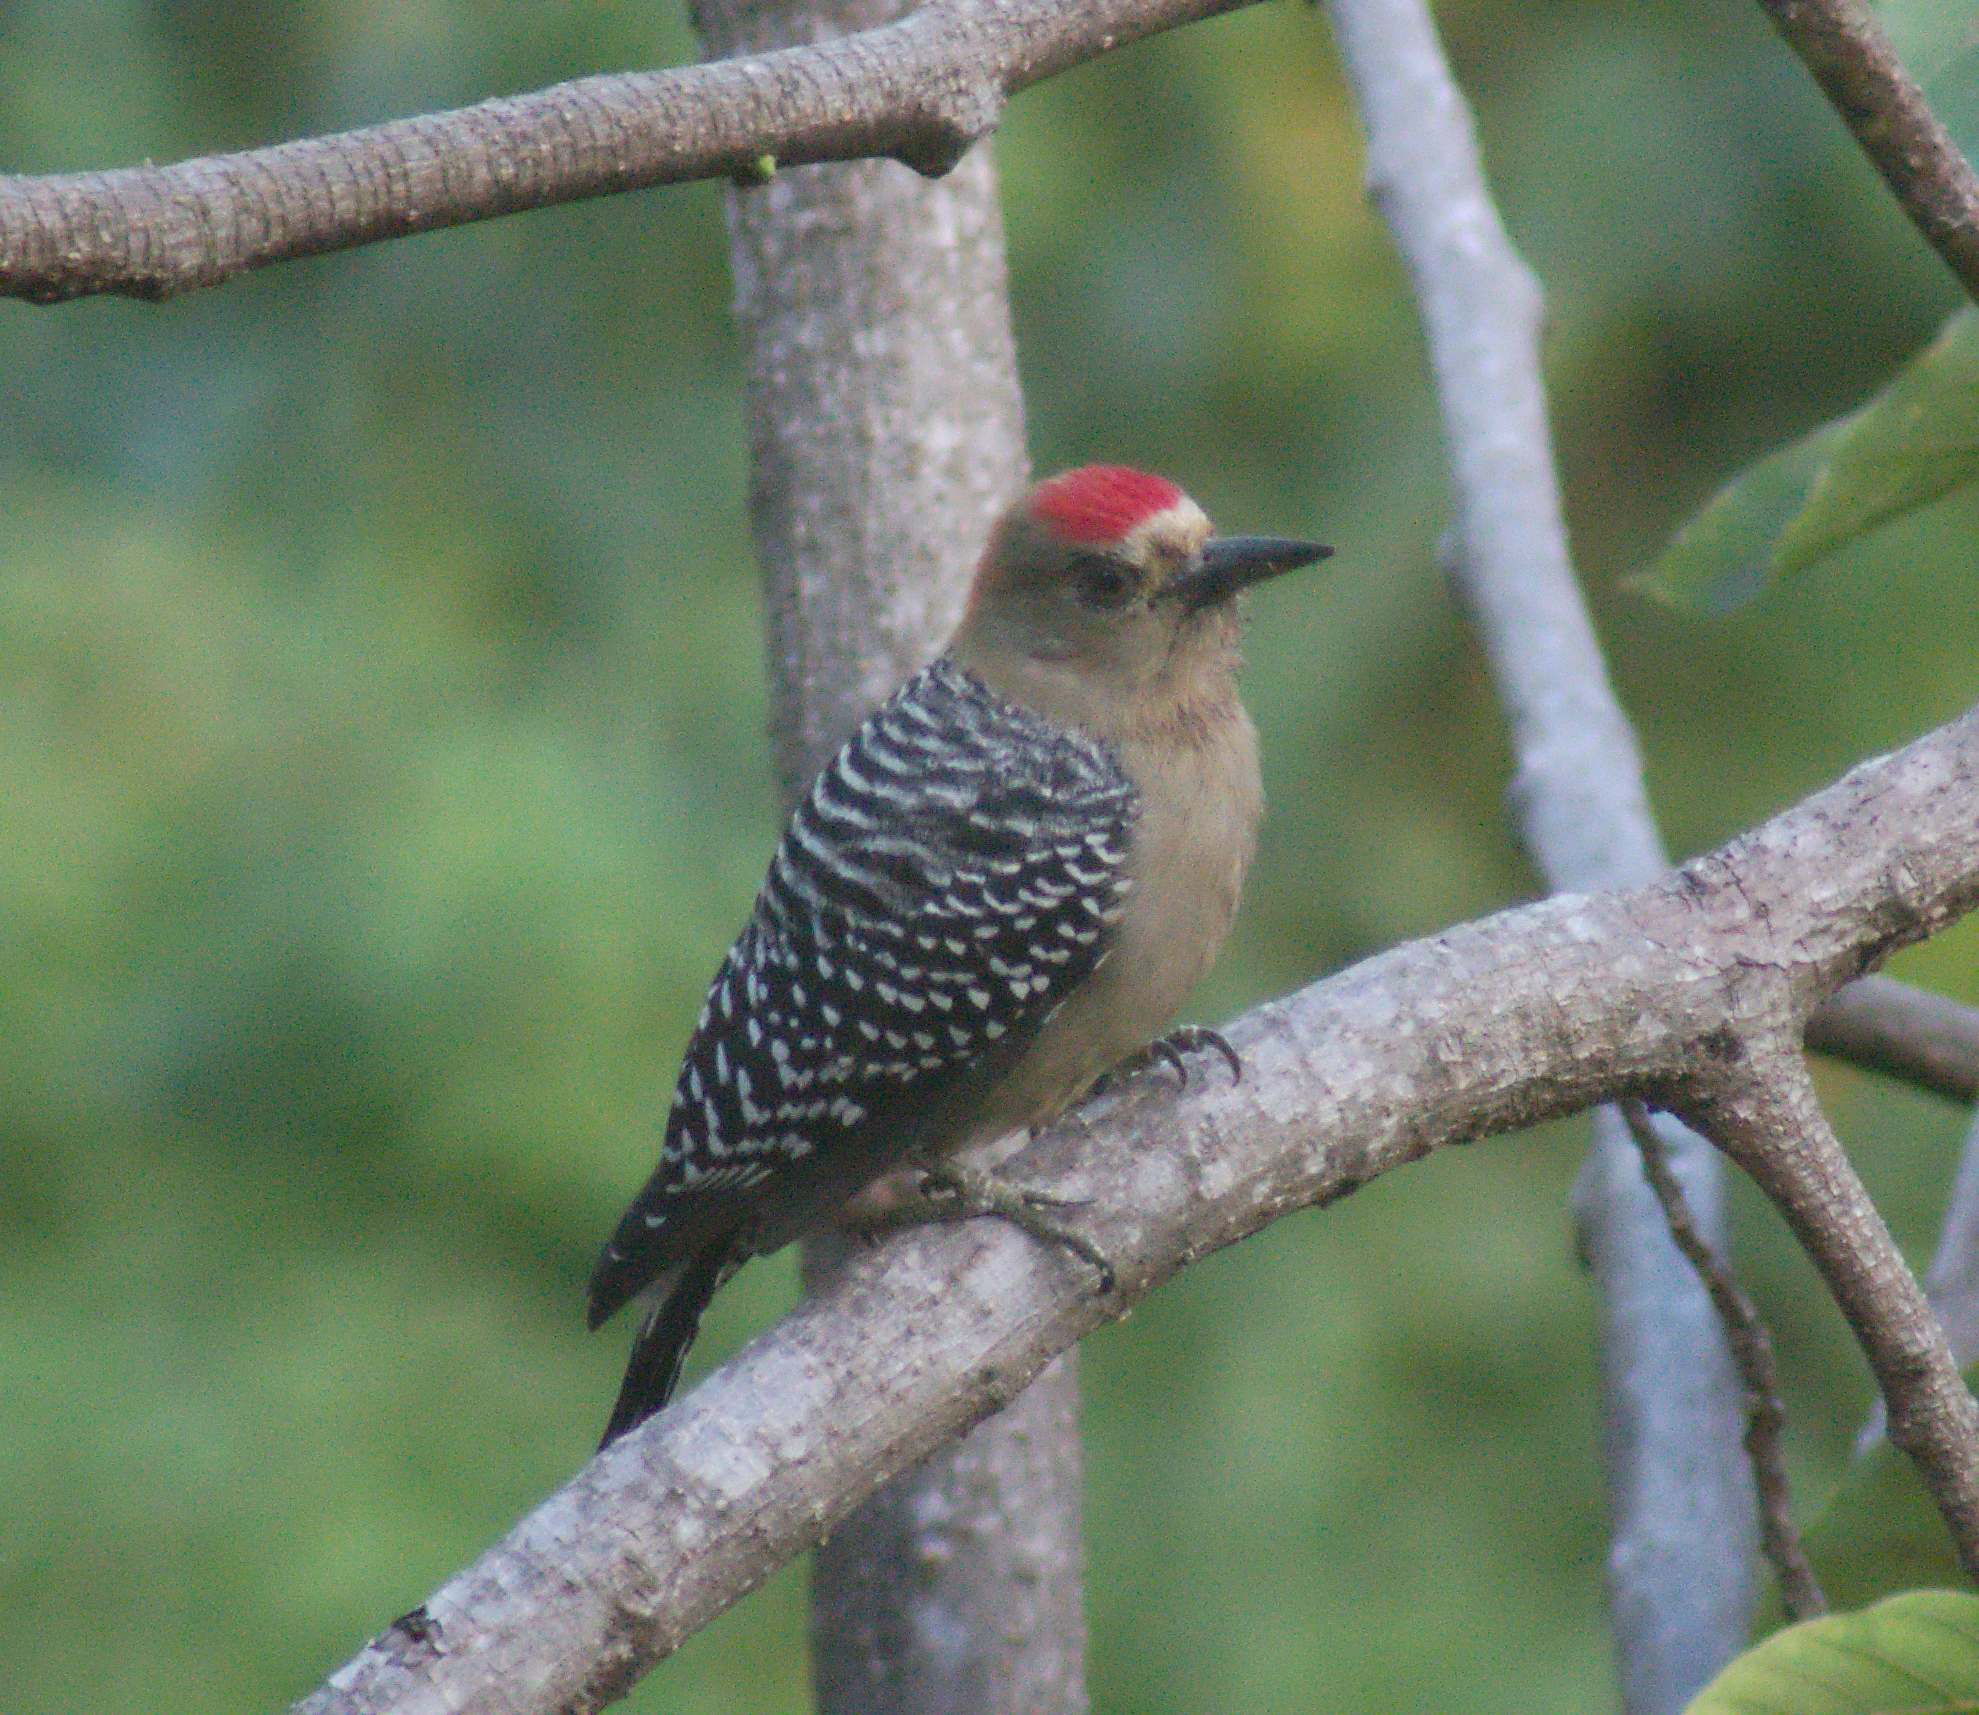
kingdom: Animalia
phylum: Chordata
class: Aves
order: Piciformes
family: Picidae
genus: Melanerpes
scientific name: Melanerpes rubricapillus
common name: Red-crowned woodpecker
